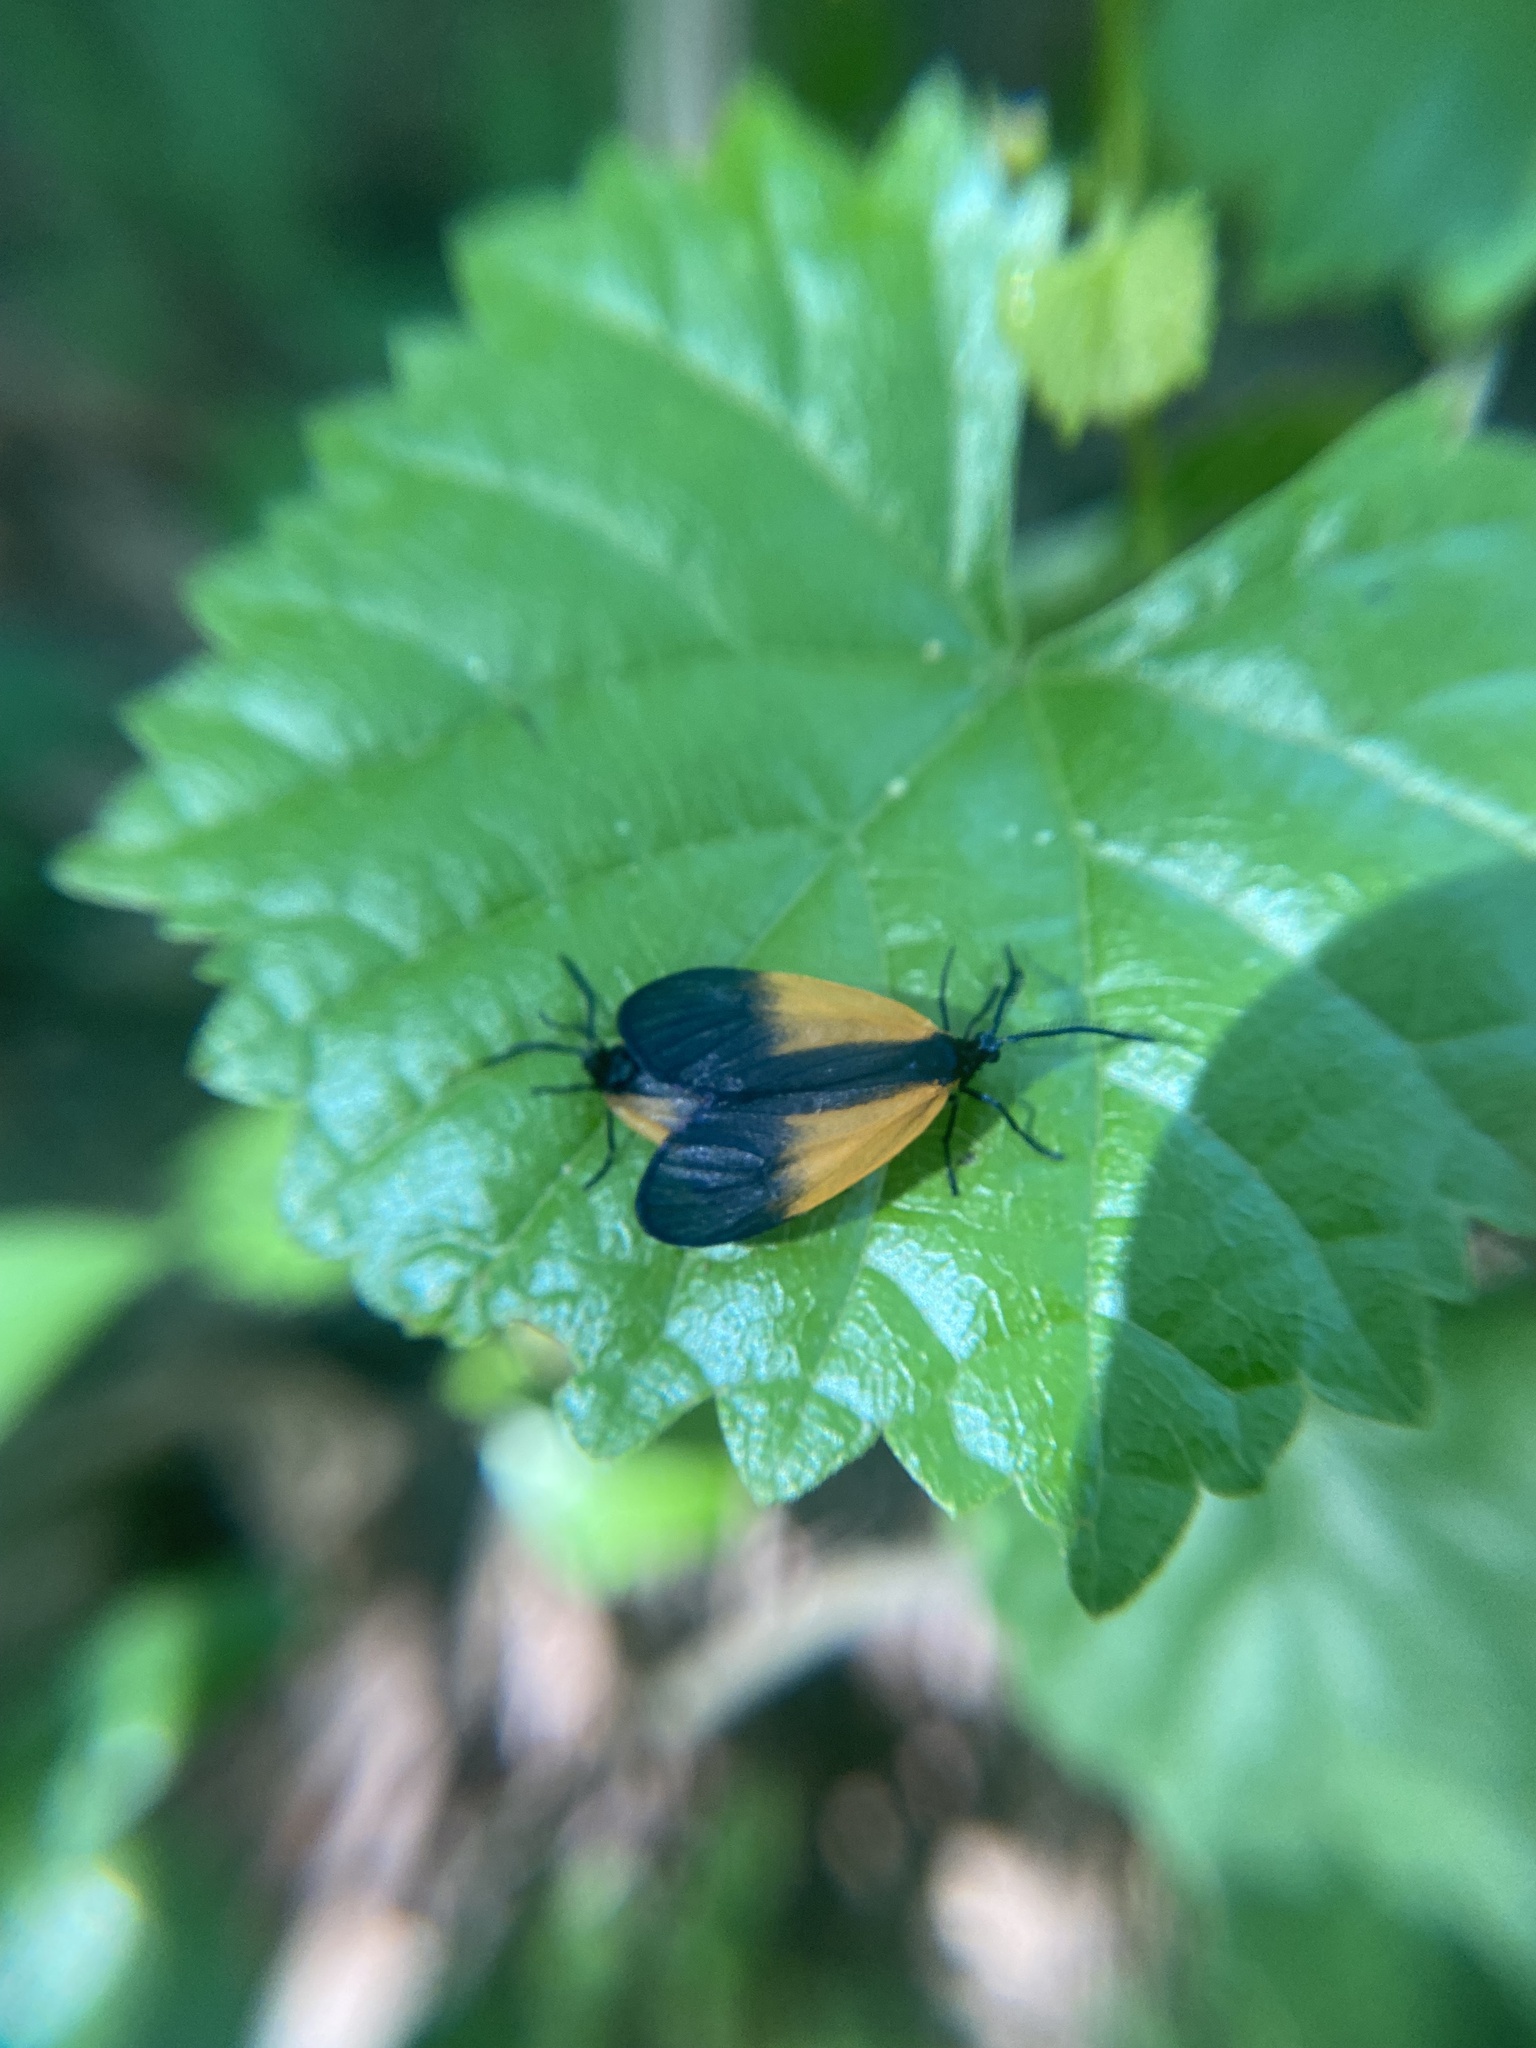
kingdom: Animalia
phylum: Arthropoda
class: Insecta
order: Lepidoptera
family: Zygaenidae
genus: Malthaca
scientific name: Malthaca dimidiata
